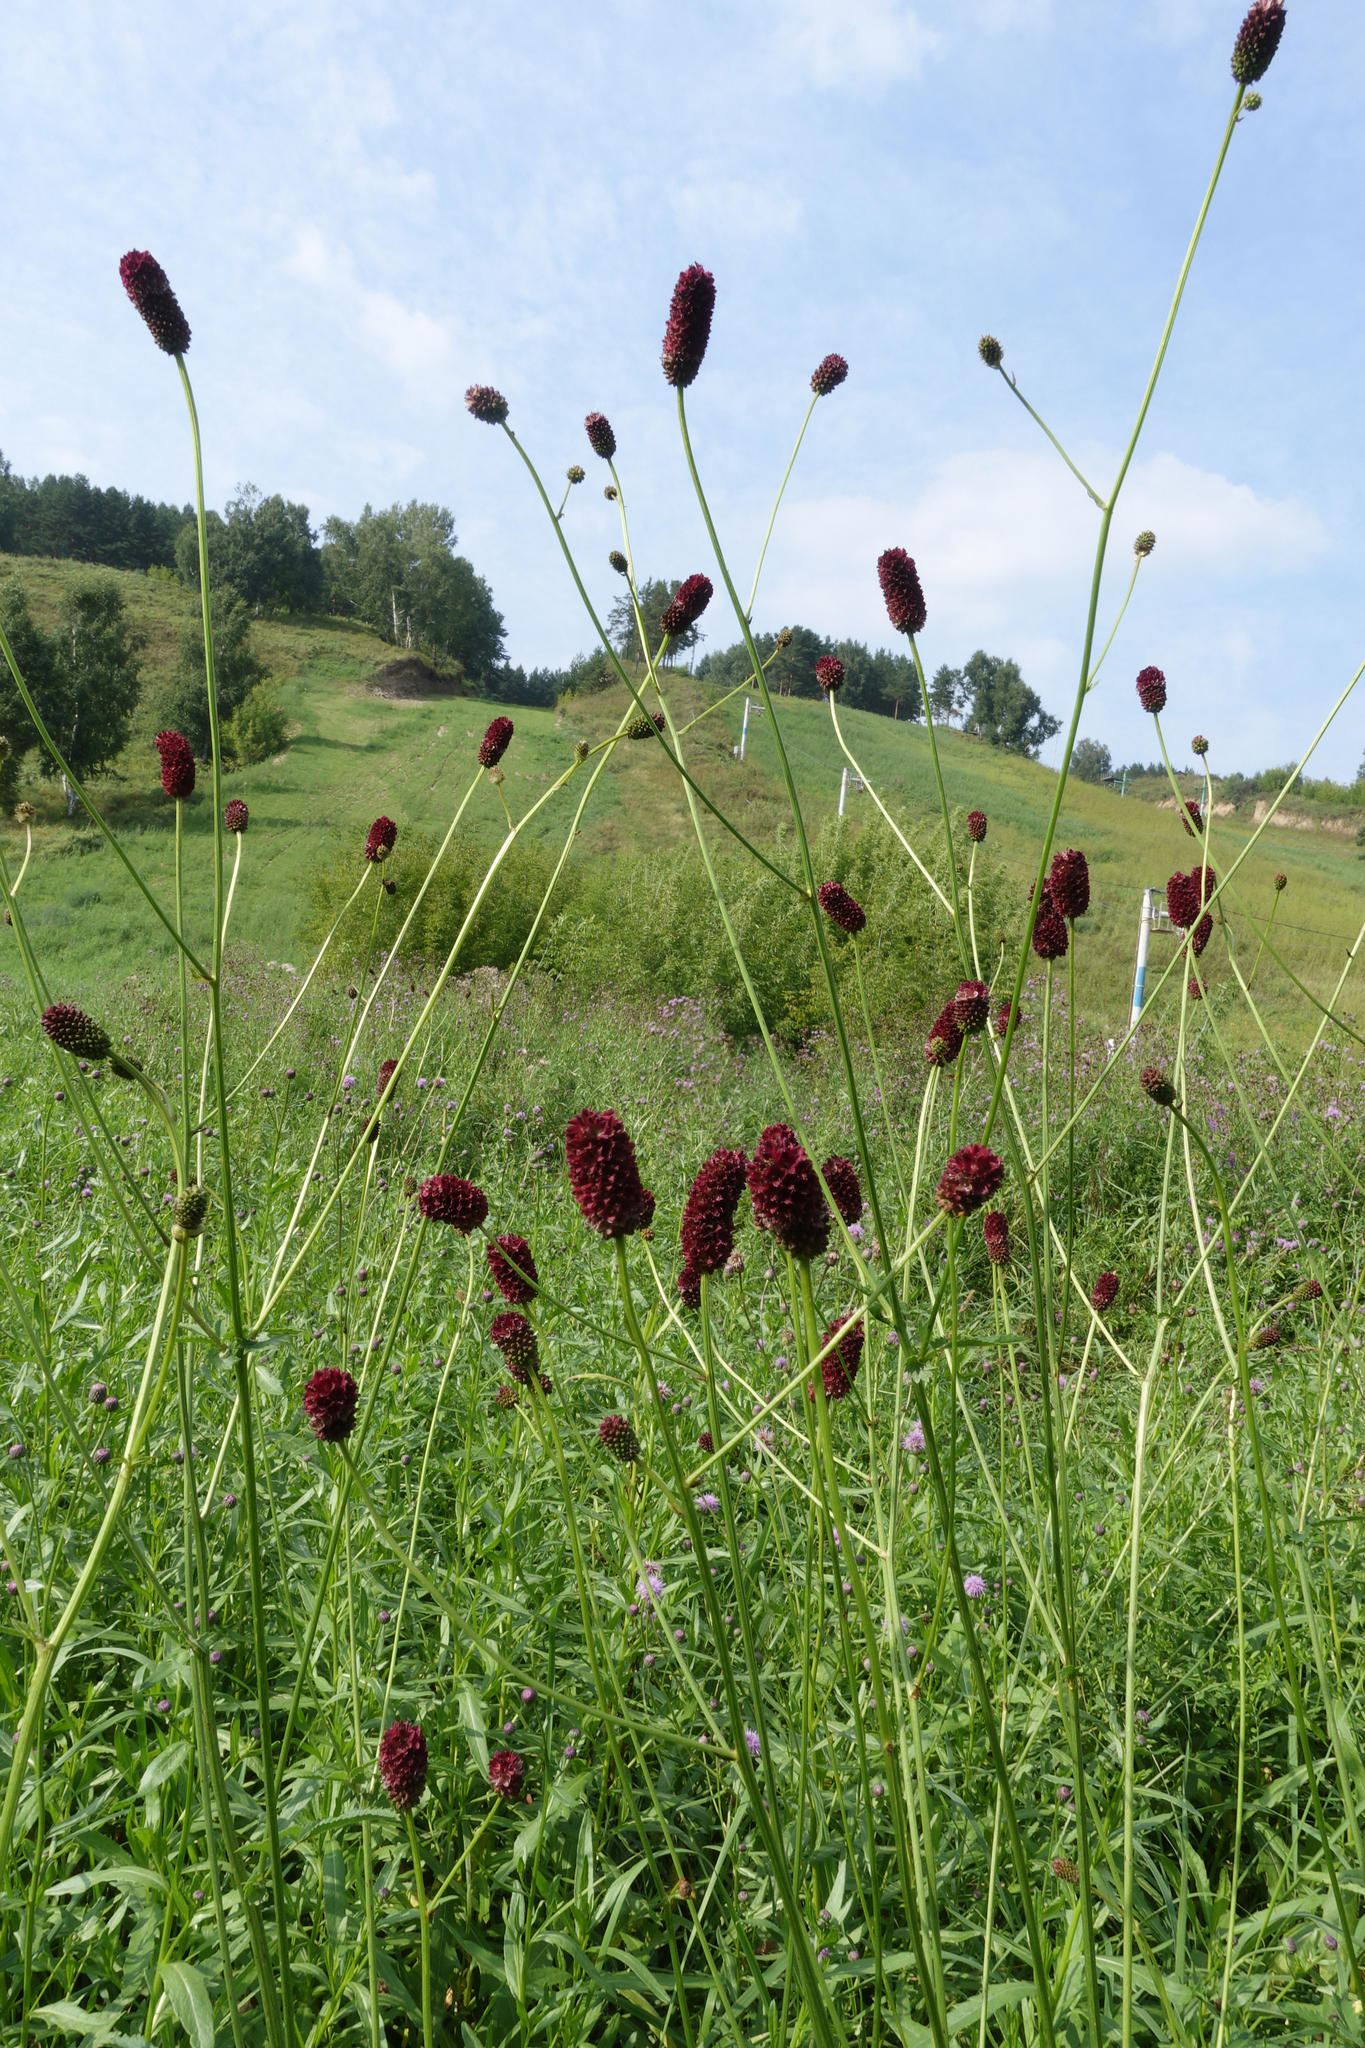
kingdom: Plantae
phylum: Tracheophyta
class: Magnoliopsida
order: Rosales
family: Rosaceae
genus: Sanguisorba
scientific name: Sanguisorba officinalis
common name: Great burnet
